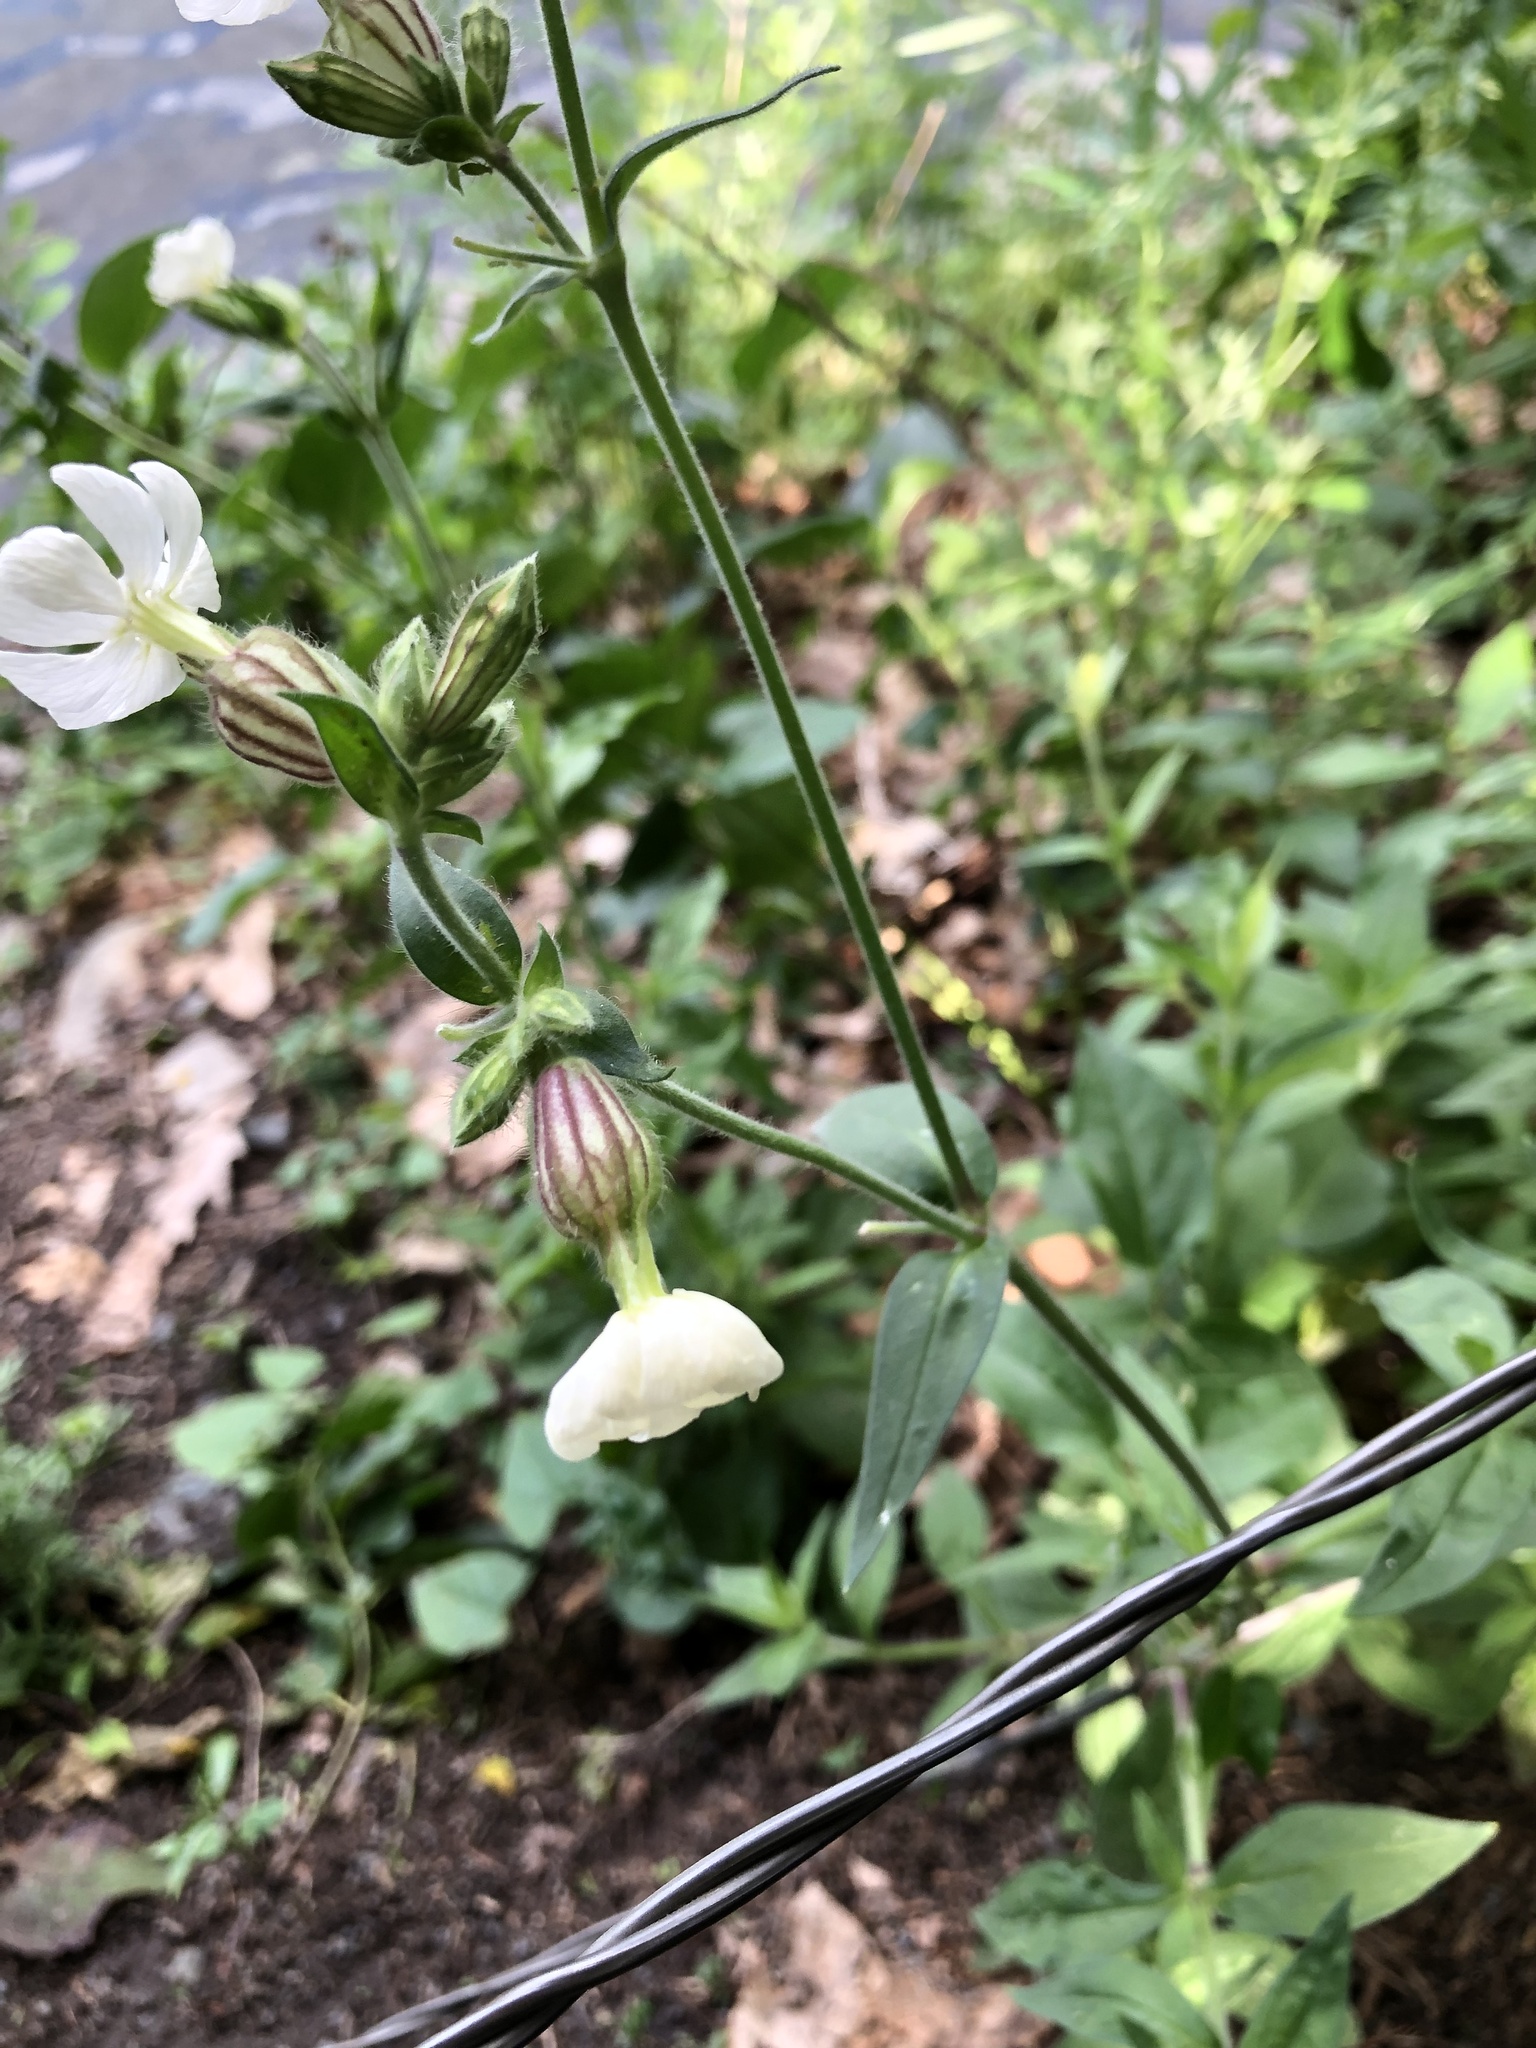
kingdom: Plantae
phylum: Tracheophyta
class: Magnoliopsida
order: Caryophyllales
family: Caryophyllaceae
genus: Silene
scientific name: Silene latifolia
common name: White campion
